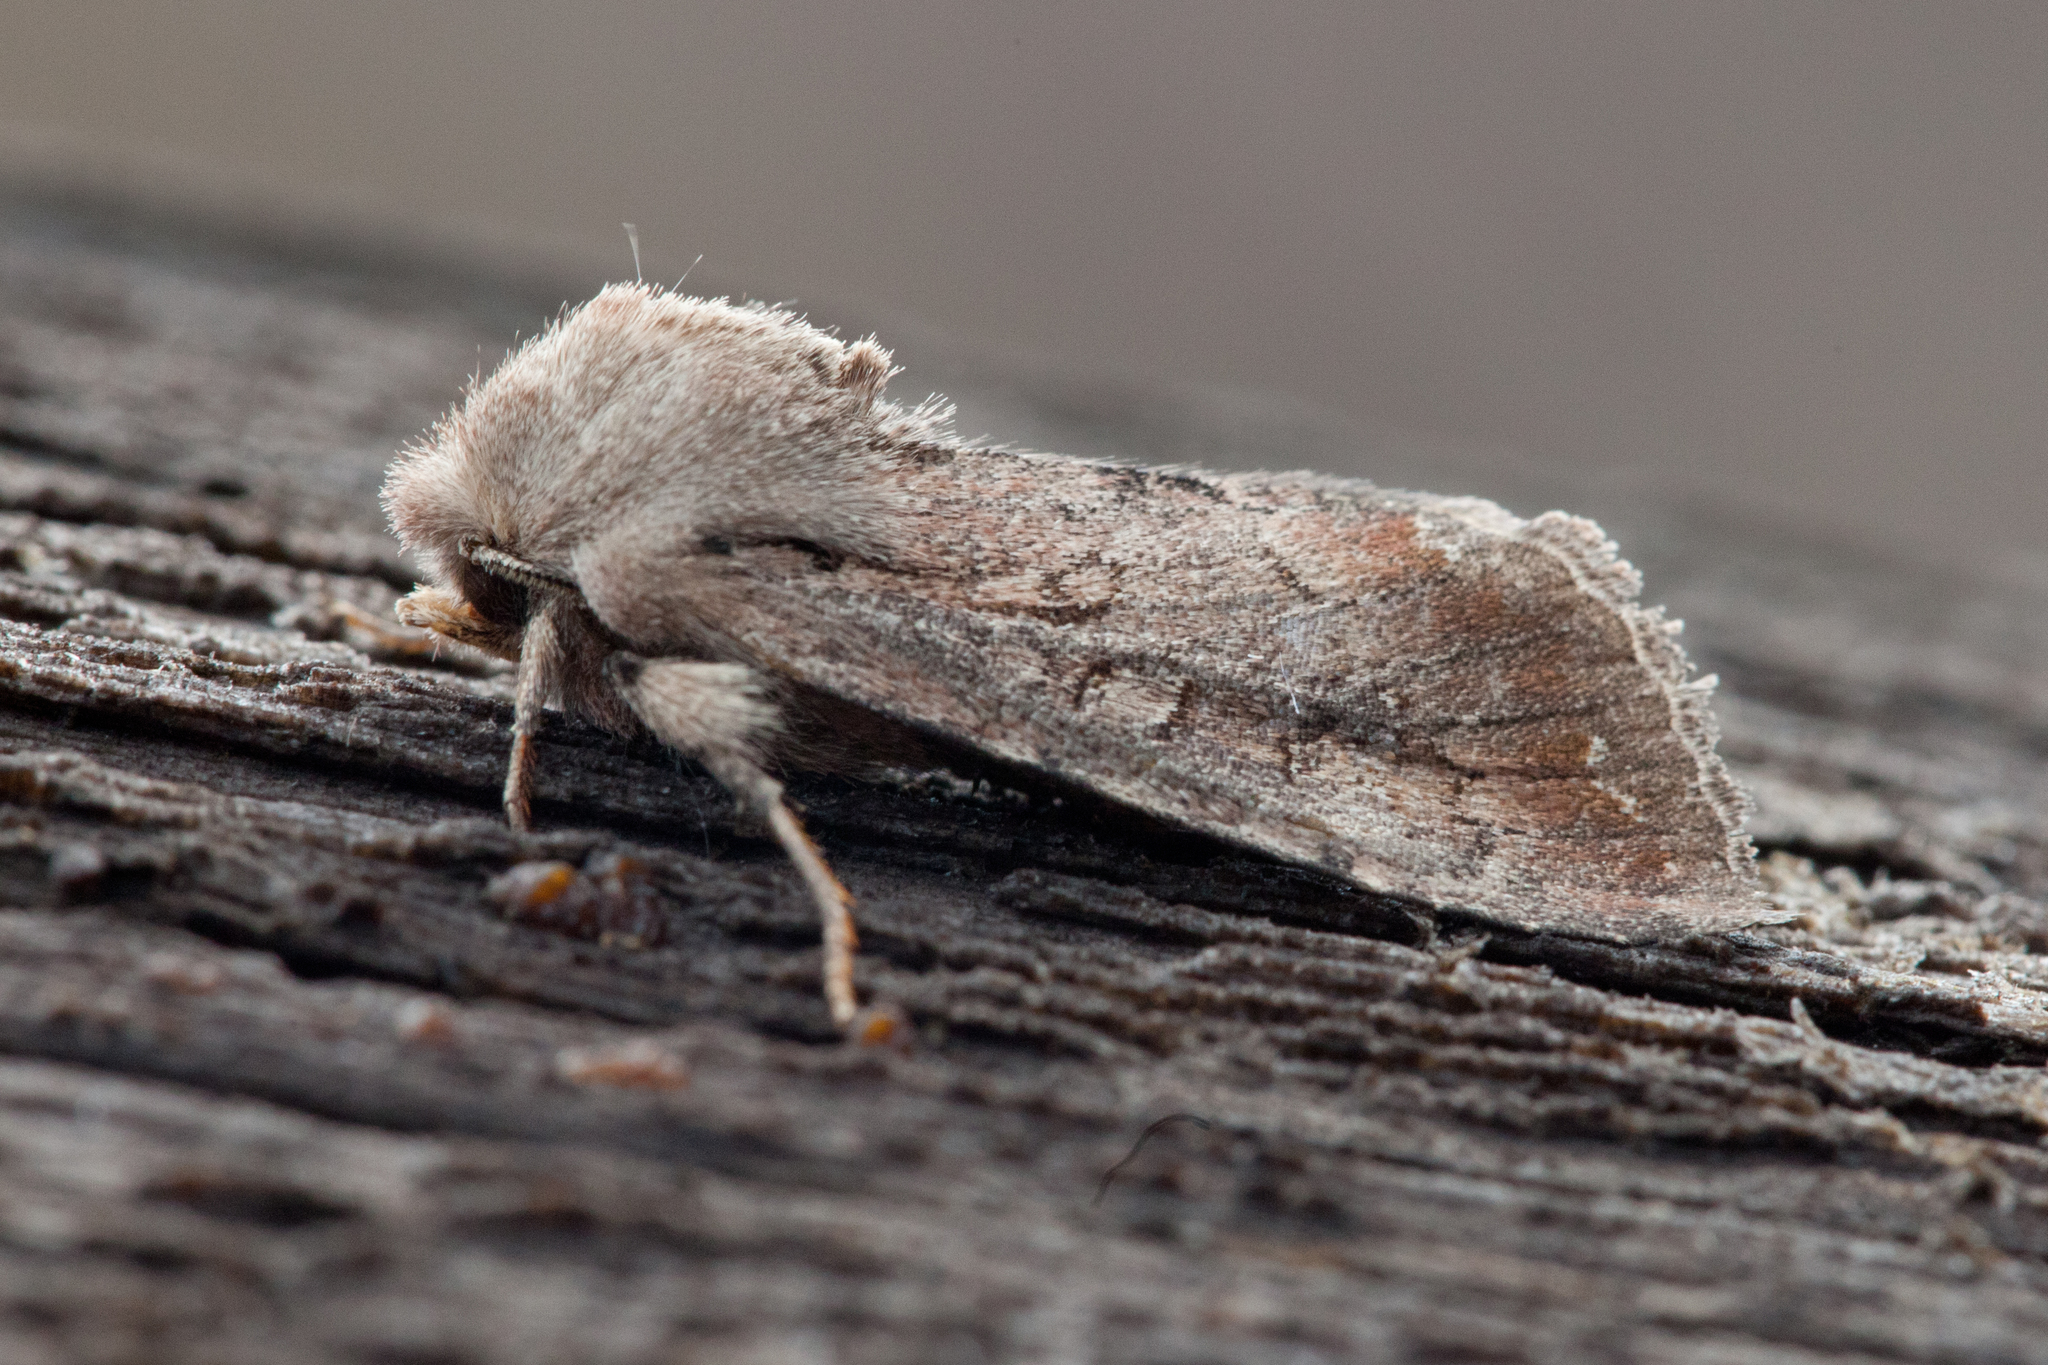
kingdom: Animalia
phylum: Arthropoda
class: Insecta
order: Lepidoptera
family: Noctuidae
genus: Lasianobia
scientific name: Lasianobia lauta
